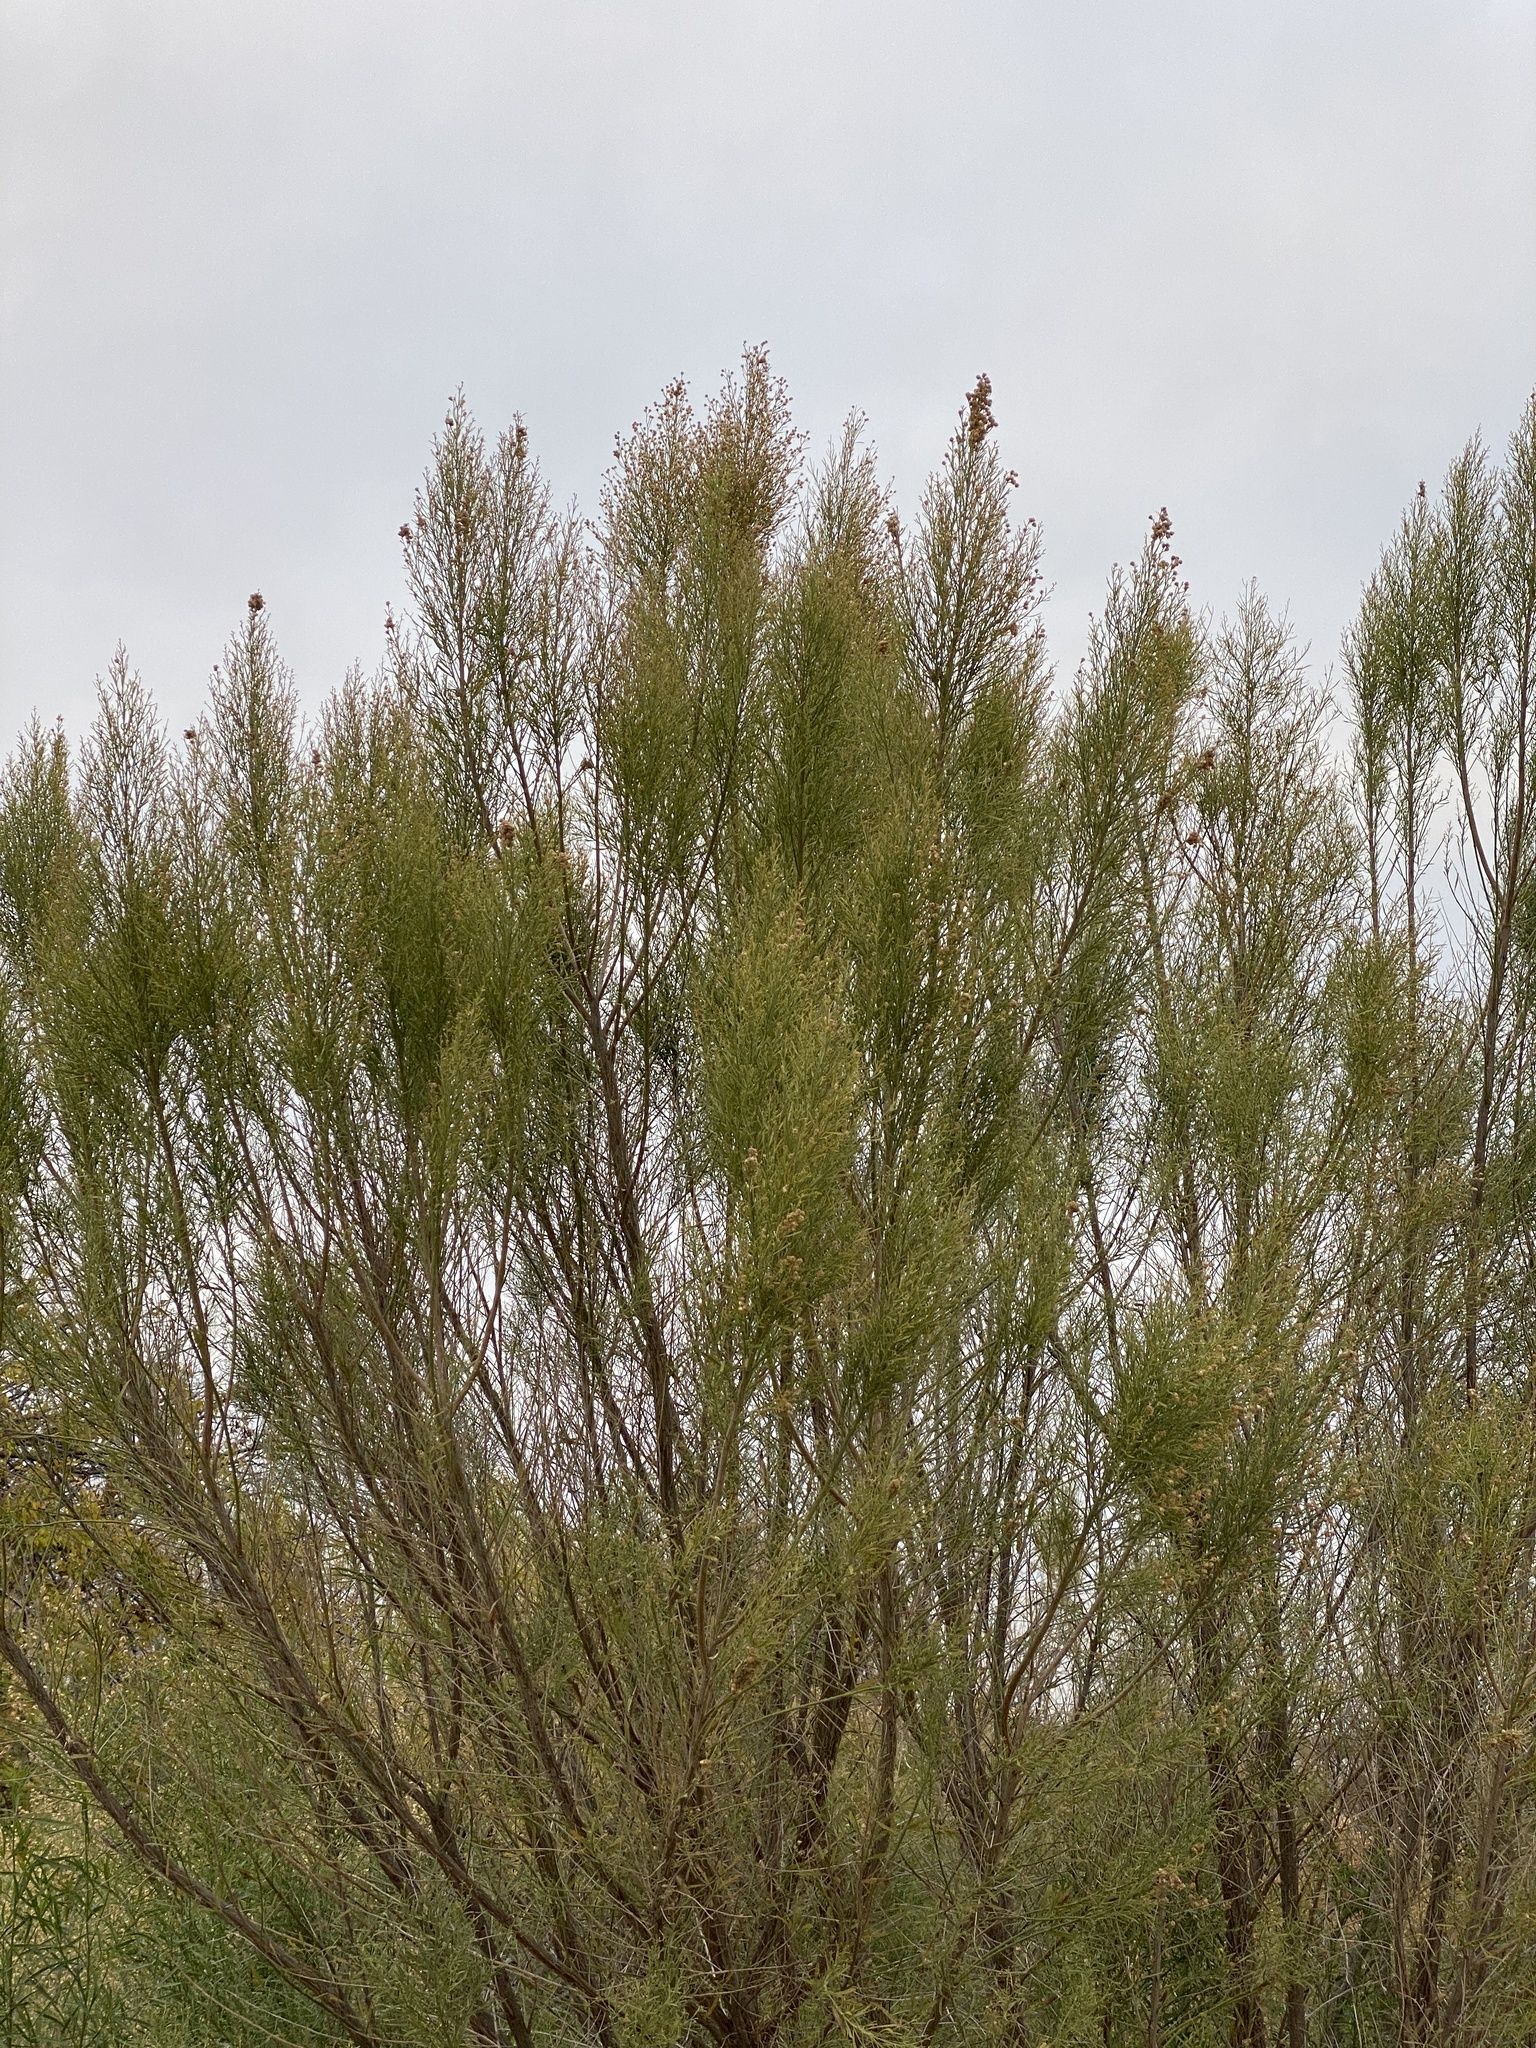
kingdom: Plantae
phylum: Tracheophyta
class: Magnoliopsida
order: Asterales
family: Asteraceae
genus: Baccharis
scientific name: Baccharis neglecta
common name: Roosevelt-weed
